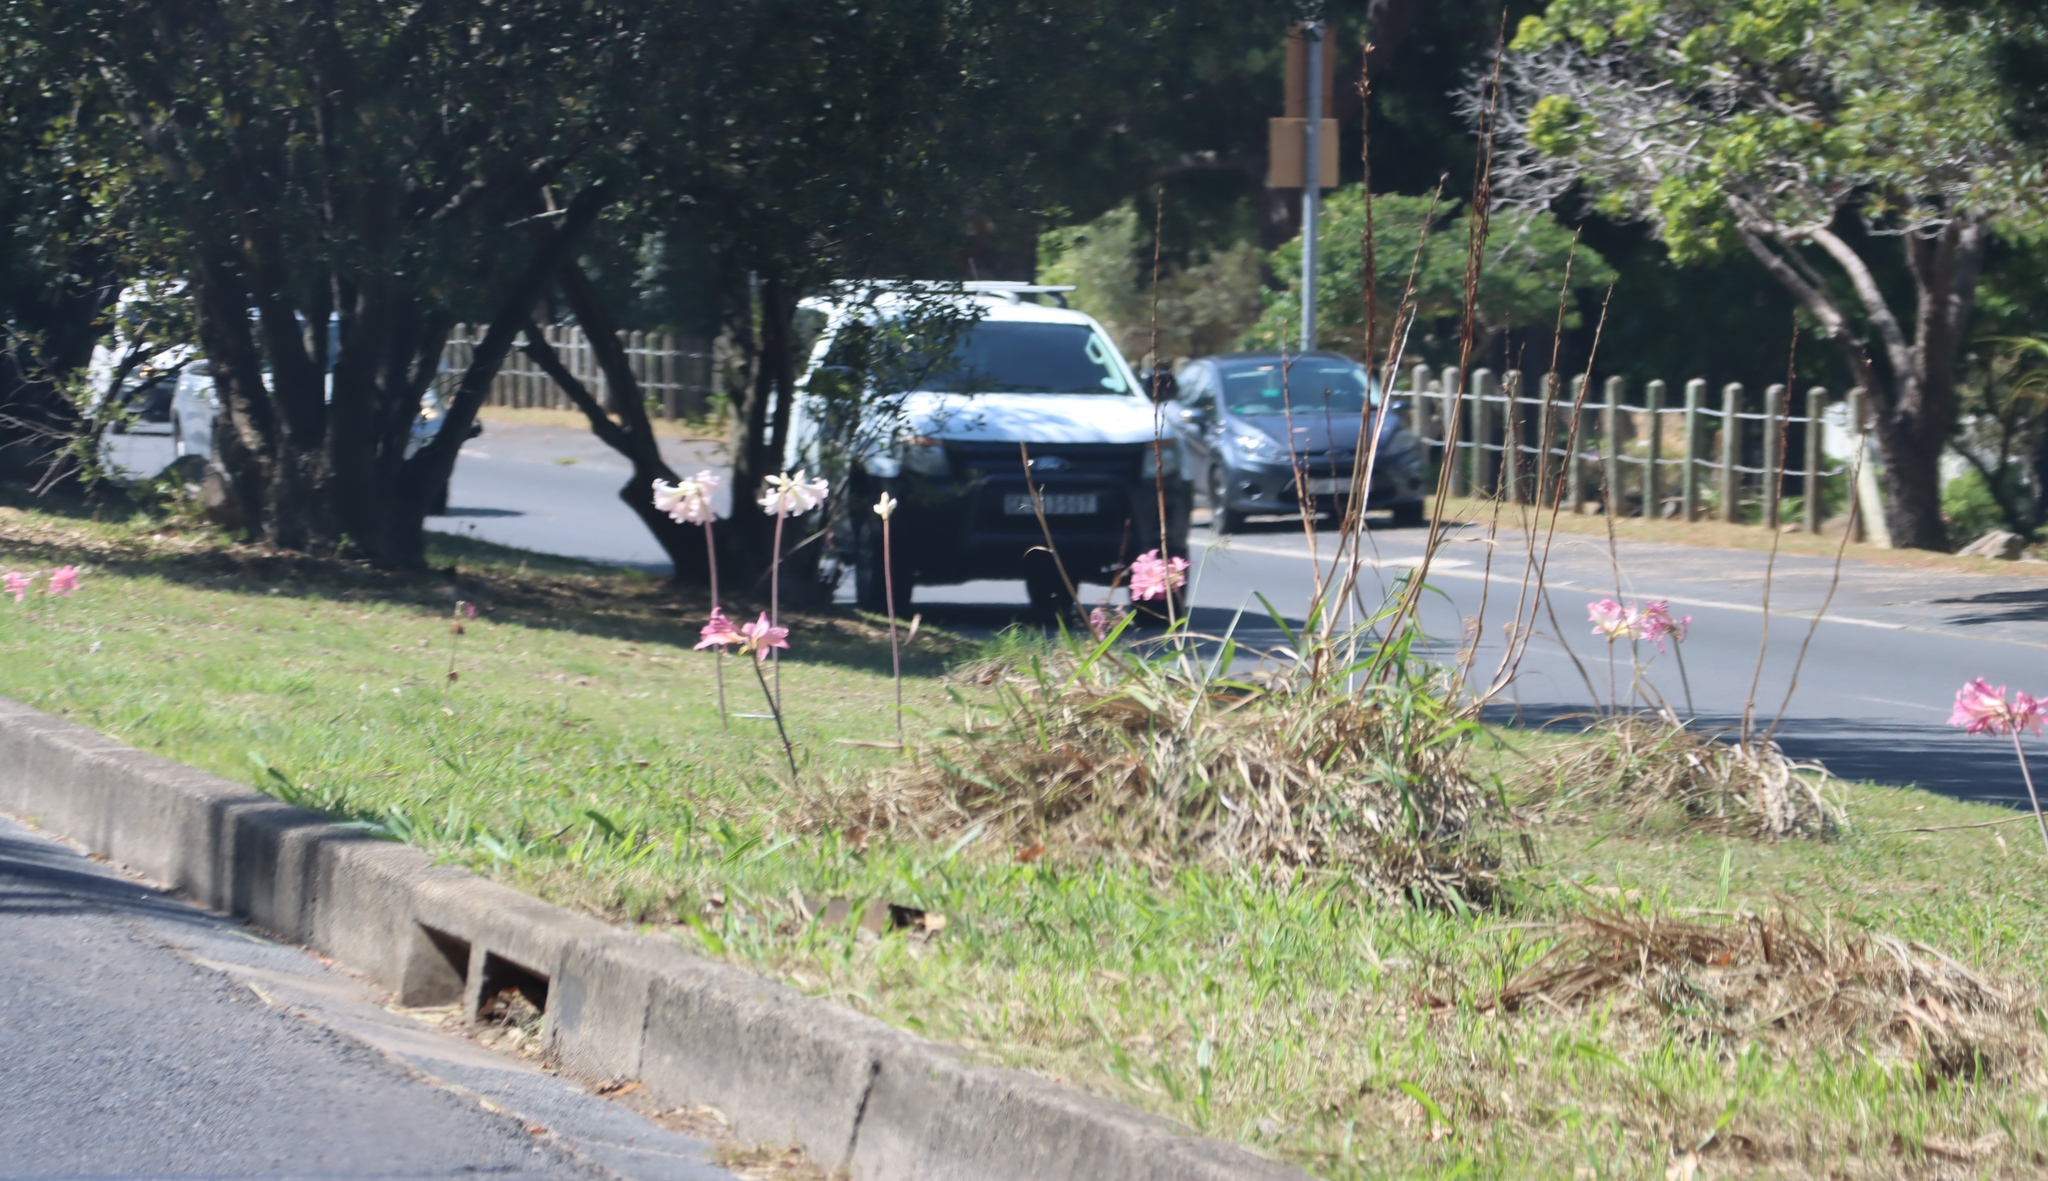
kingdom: Plantae
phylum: Tracheophyta
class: Liliopsida
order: Asparagales
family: Amaryllidaceae
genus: Amaryllis
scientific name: Amaryllis belladonna
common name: Jersey lily
